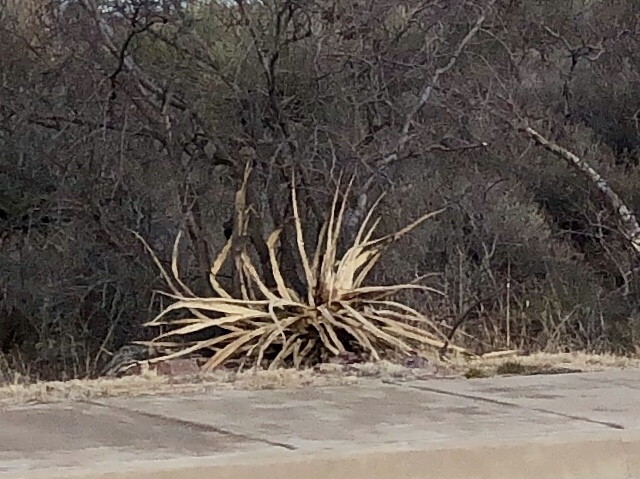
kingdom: Plantae
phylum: Tracheophyta
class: Liliopsida
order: Asparagales
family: Asparagaceae
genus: Agave
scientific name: Agave palmeri
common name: Palmer agave
